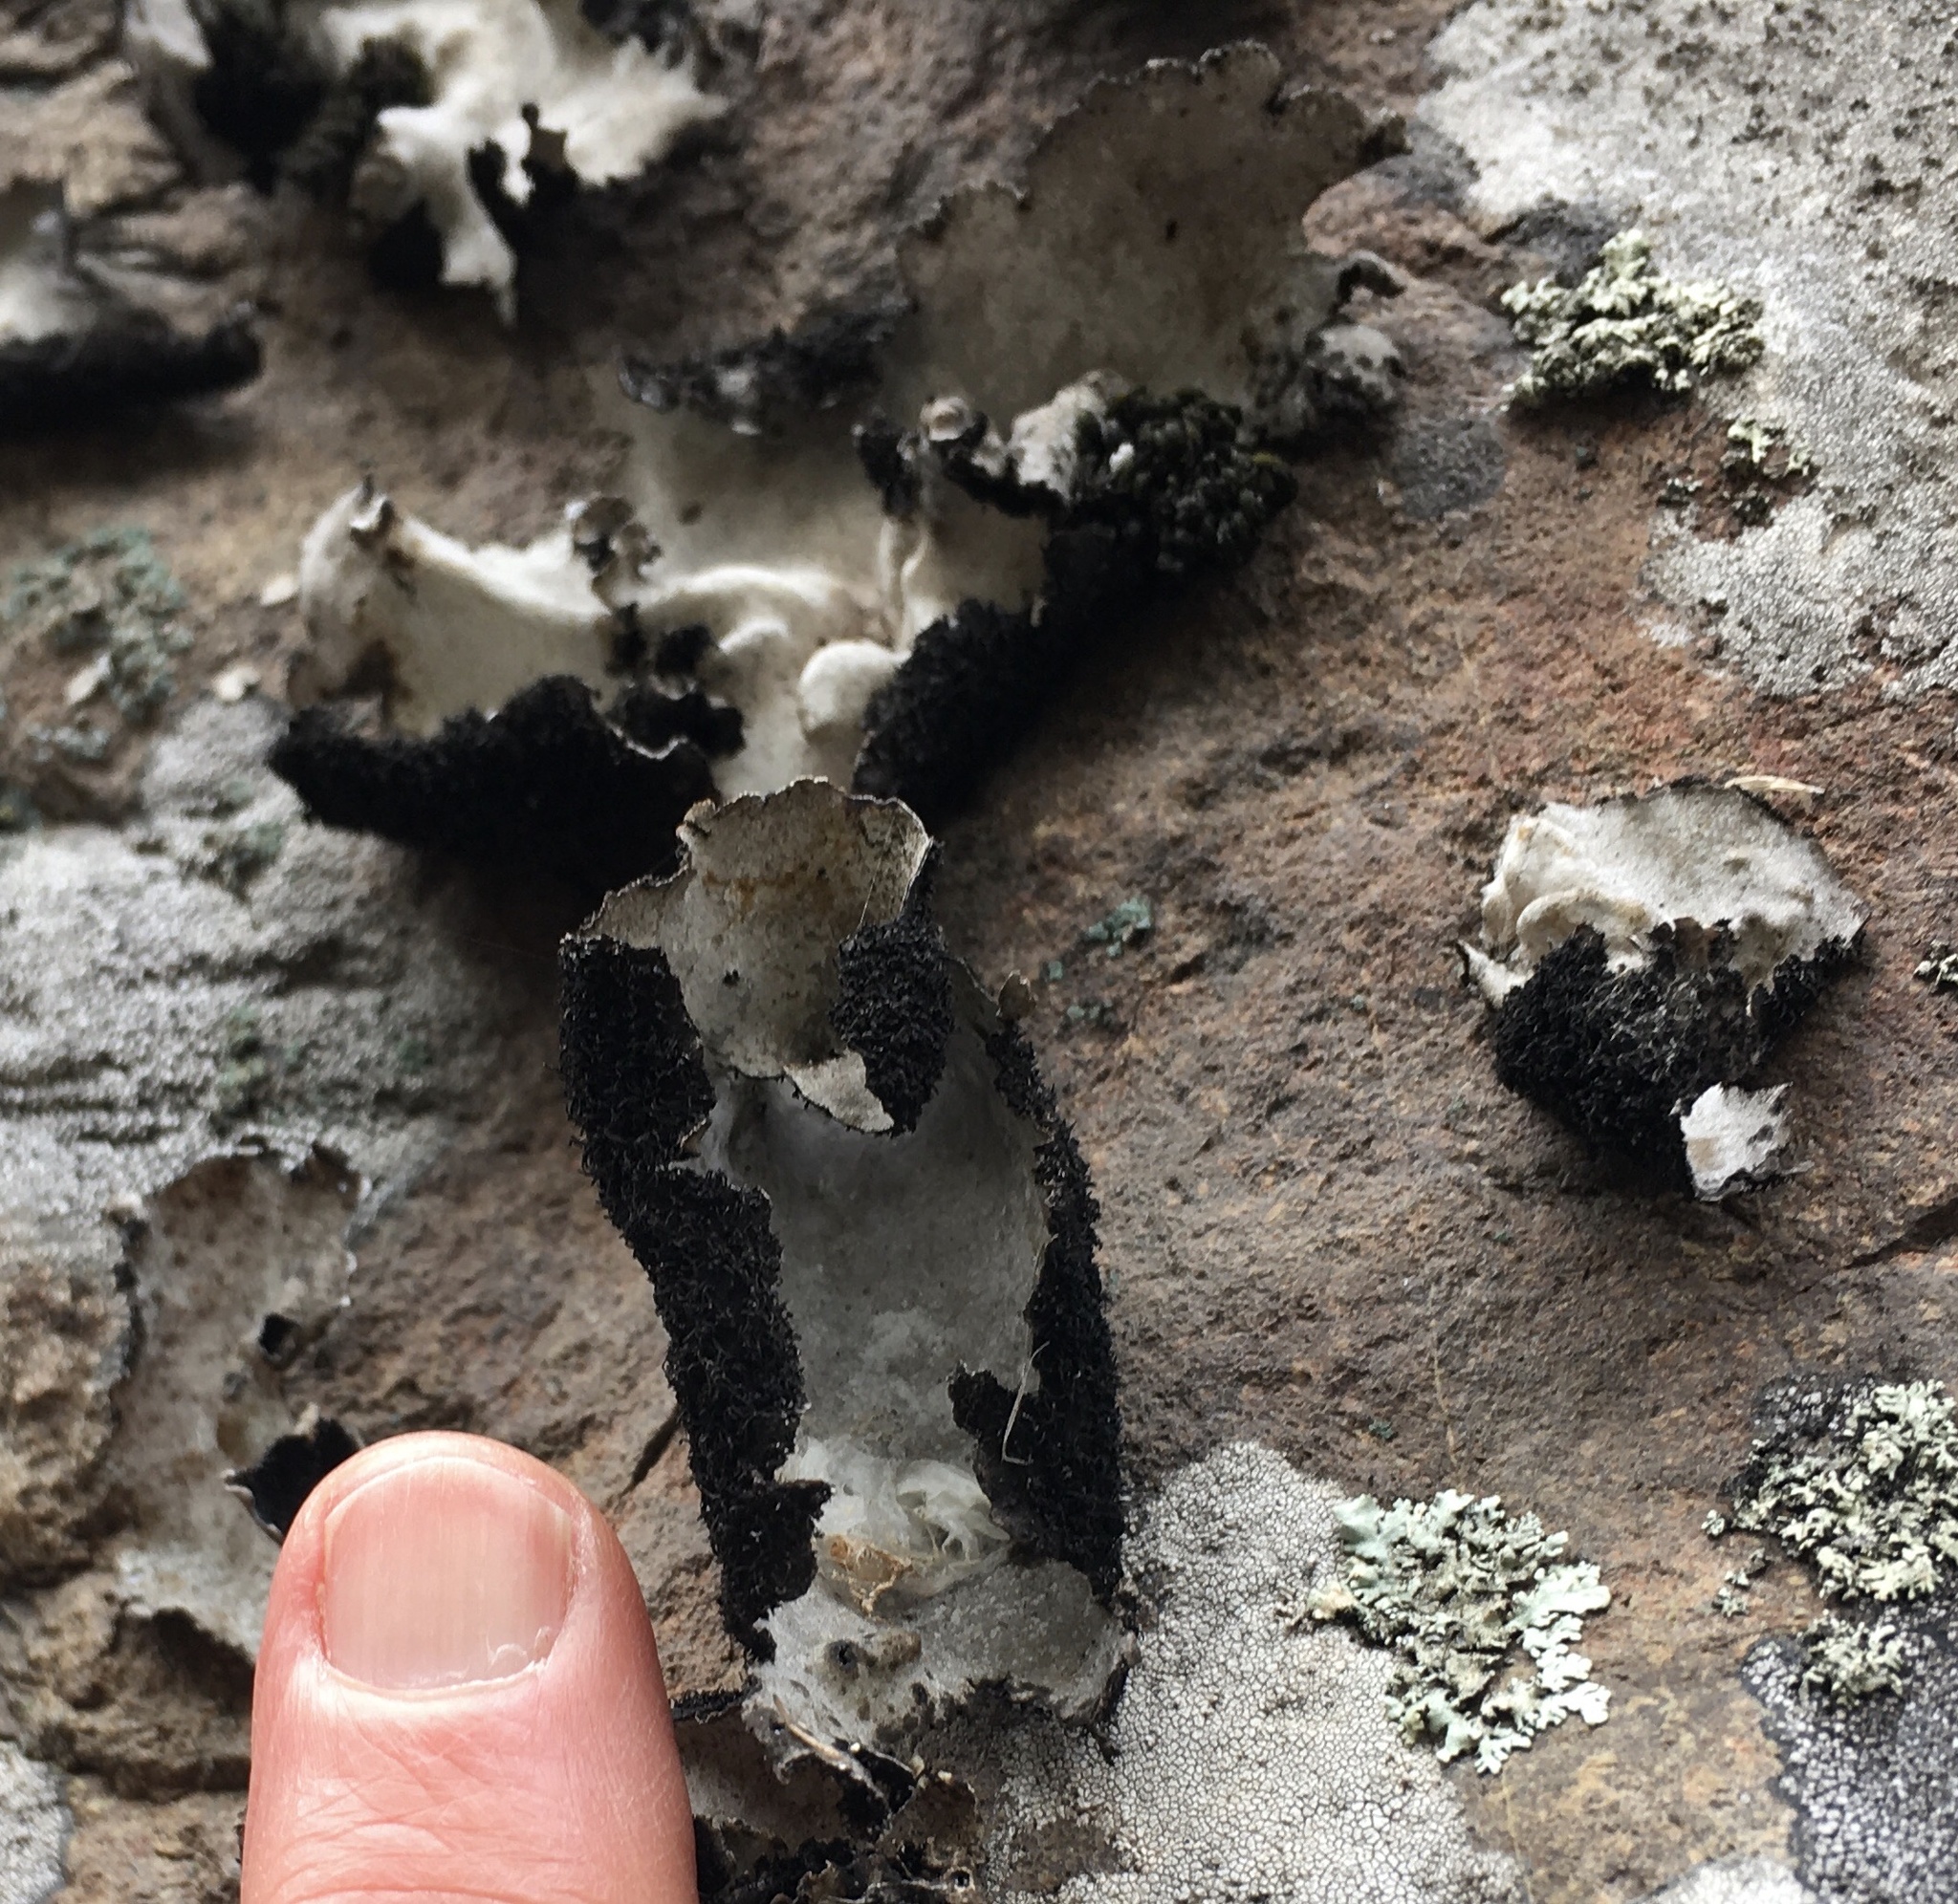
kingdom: Fungi
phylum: Ascomycota
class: Lecanoromycetes
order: Umbilicariales
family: Umbilicariaceae
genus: Umbilicaria
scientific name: Umbilicaria americana
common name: Frosted rock tripe
